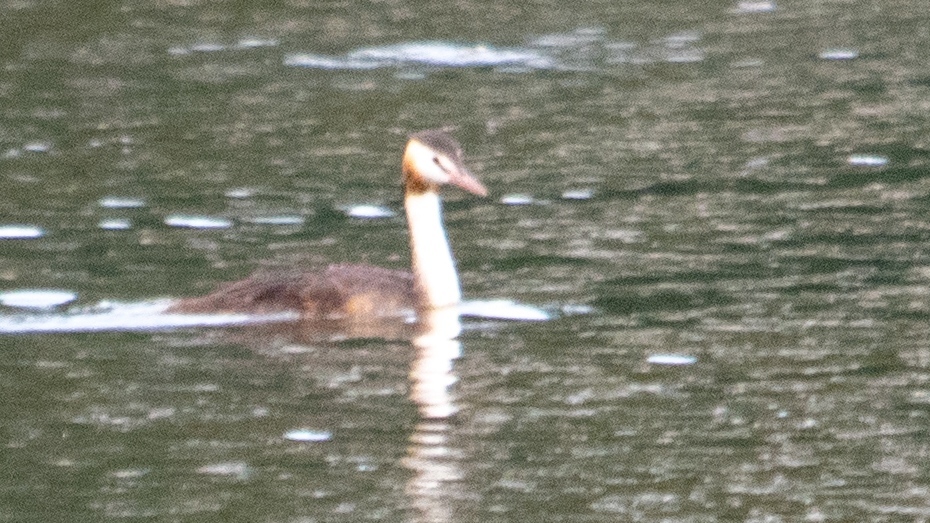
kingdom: Animalia
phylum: Chordata
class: Aves
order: Podicipediformes
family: Podicipedidae
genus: Podiceps
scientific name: Podiceps cristatus
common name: Great crested grebe
